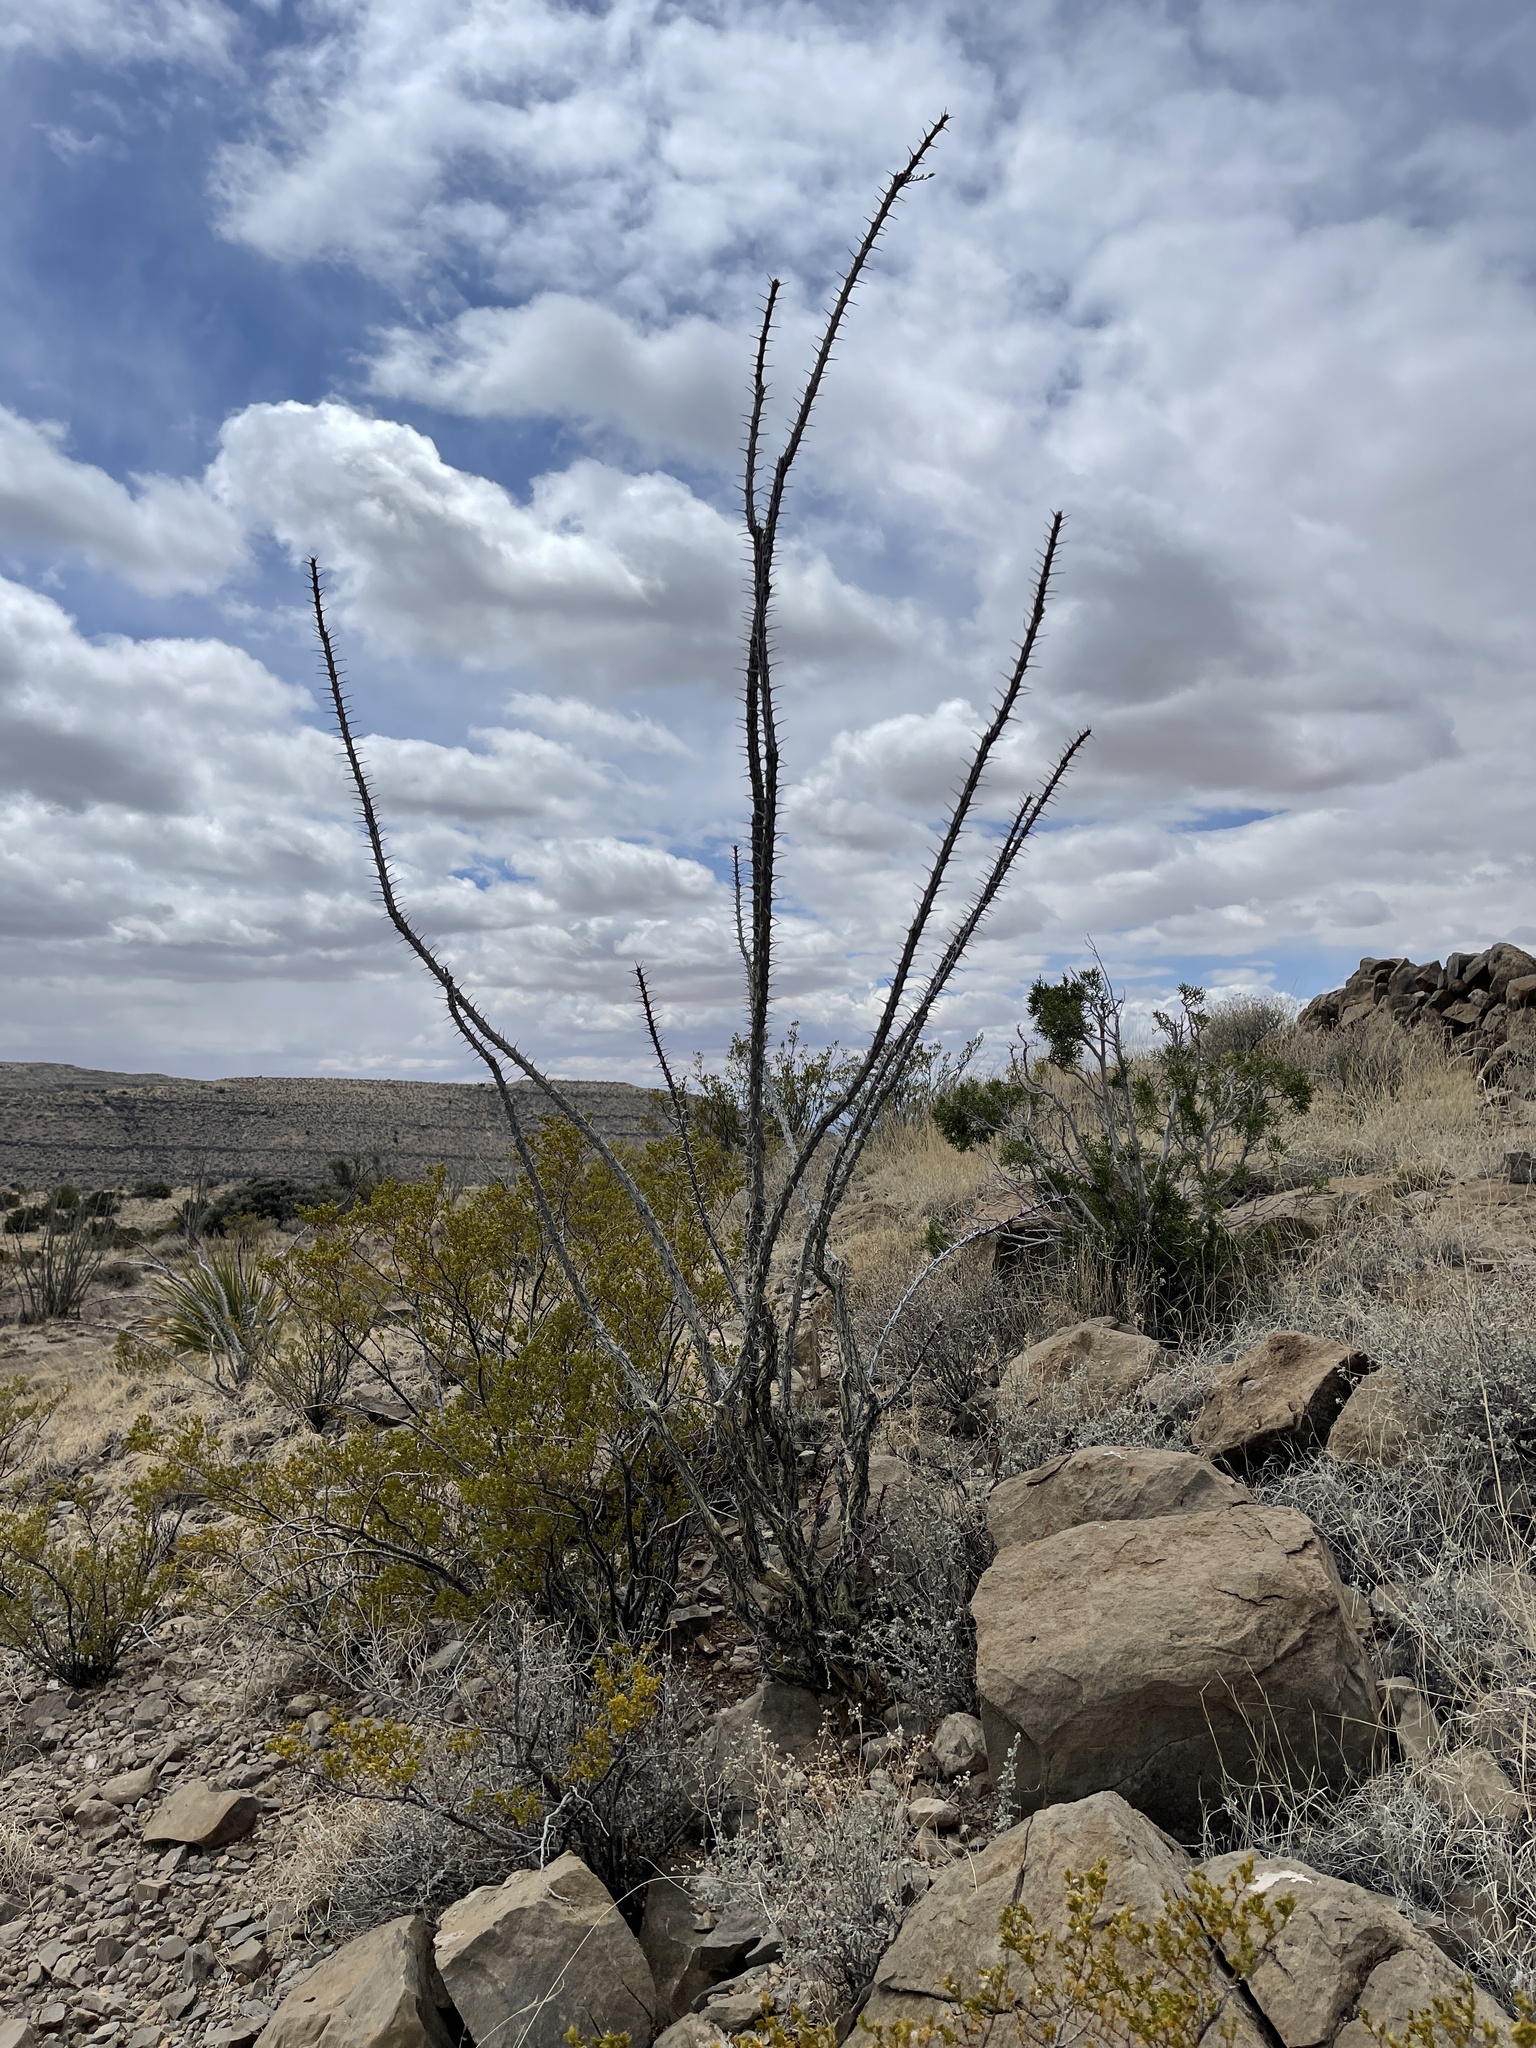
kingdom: Plantae
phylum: Tracheophyta
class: Magnoliopsida
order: Ericales
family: Fouquieriaceae
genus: Fouquieria
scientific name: Fouquieria splendens
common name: Vine-cactus
